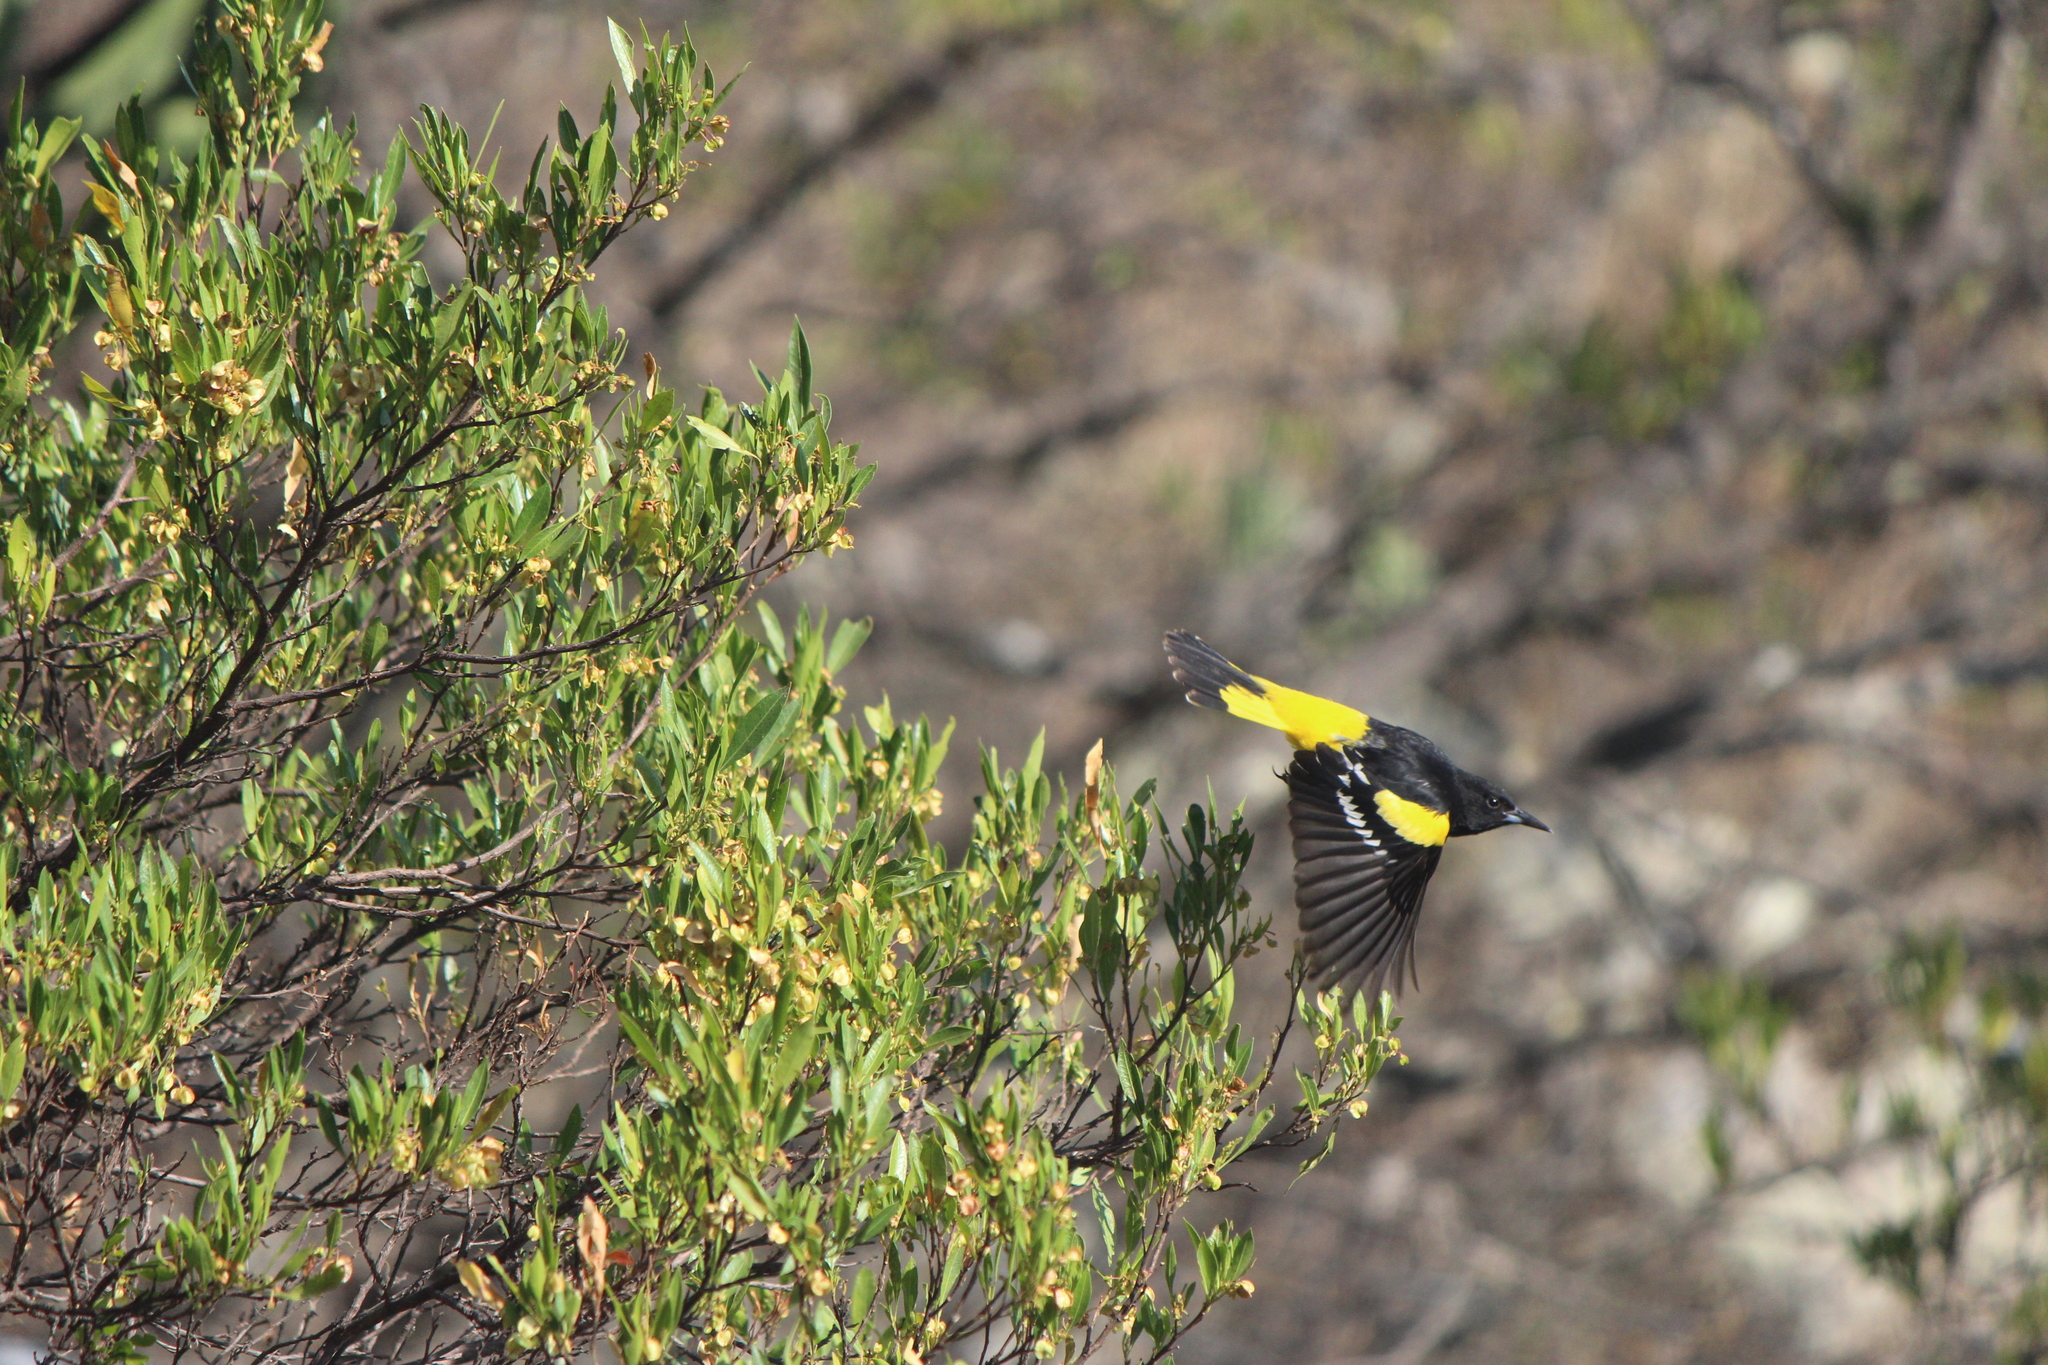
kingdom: Animalia
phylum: Chordata
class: Aves
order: Passeriformes
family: Icteridae
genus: Icterus
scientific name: Icterus parisorum
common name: Scott's oriole
